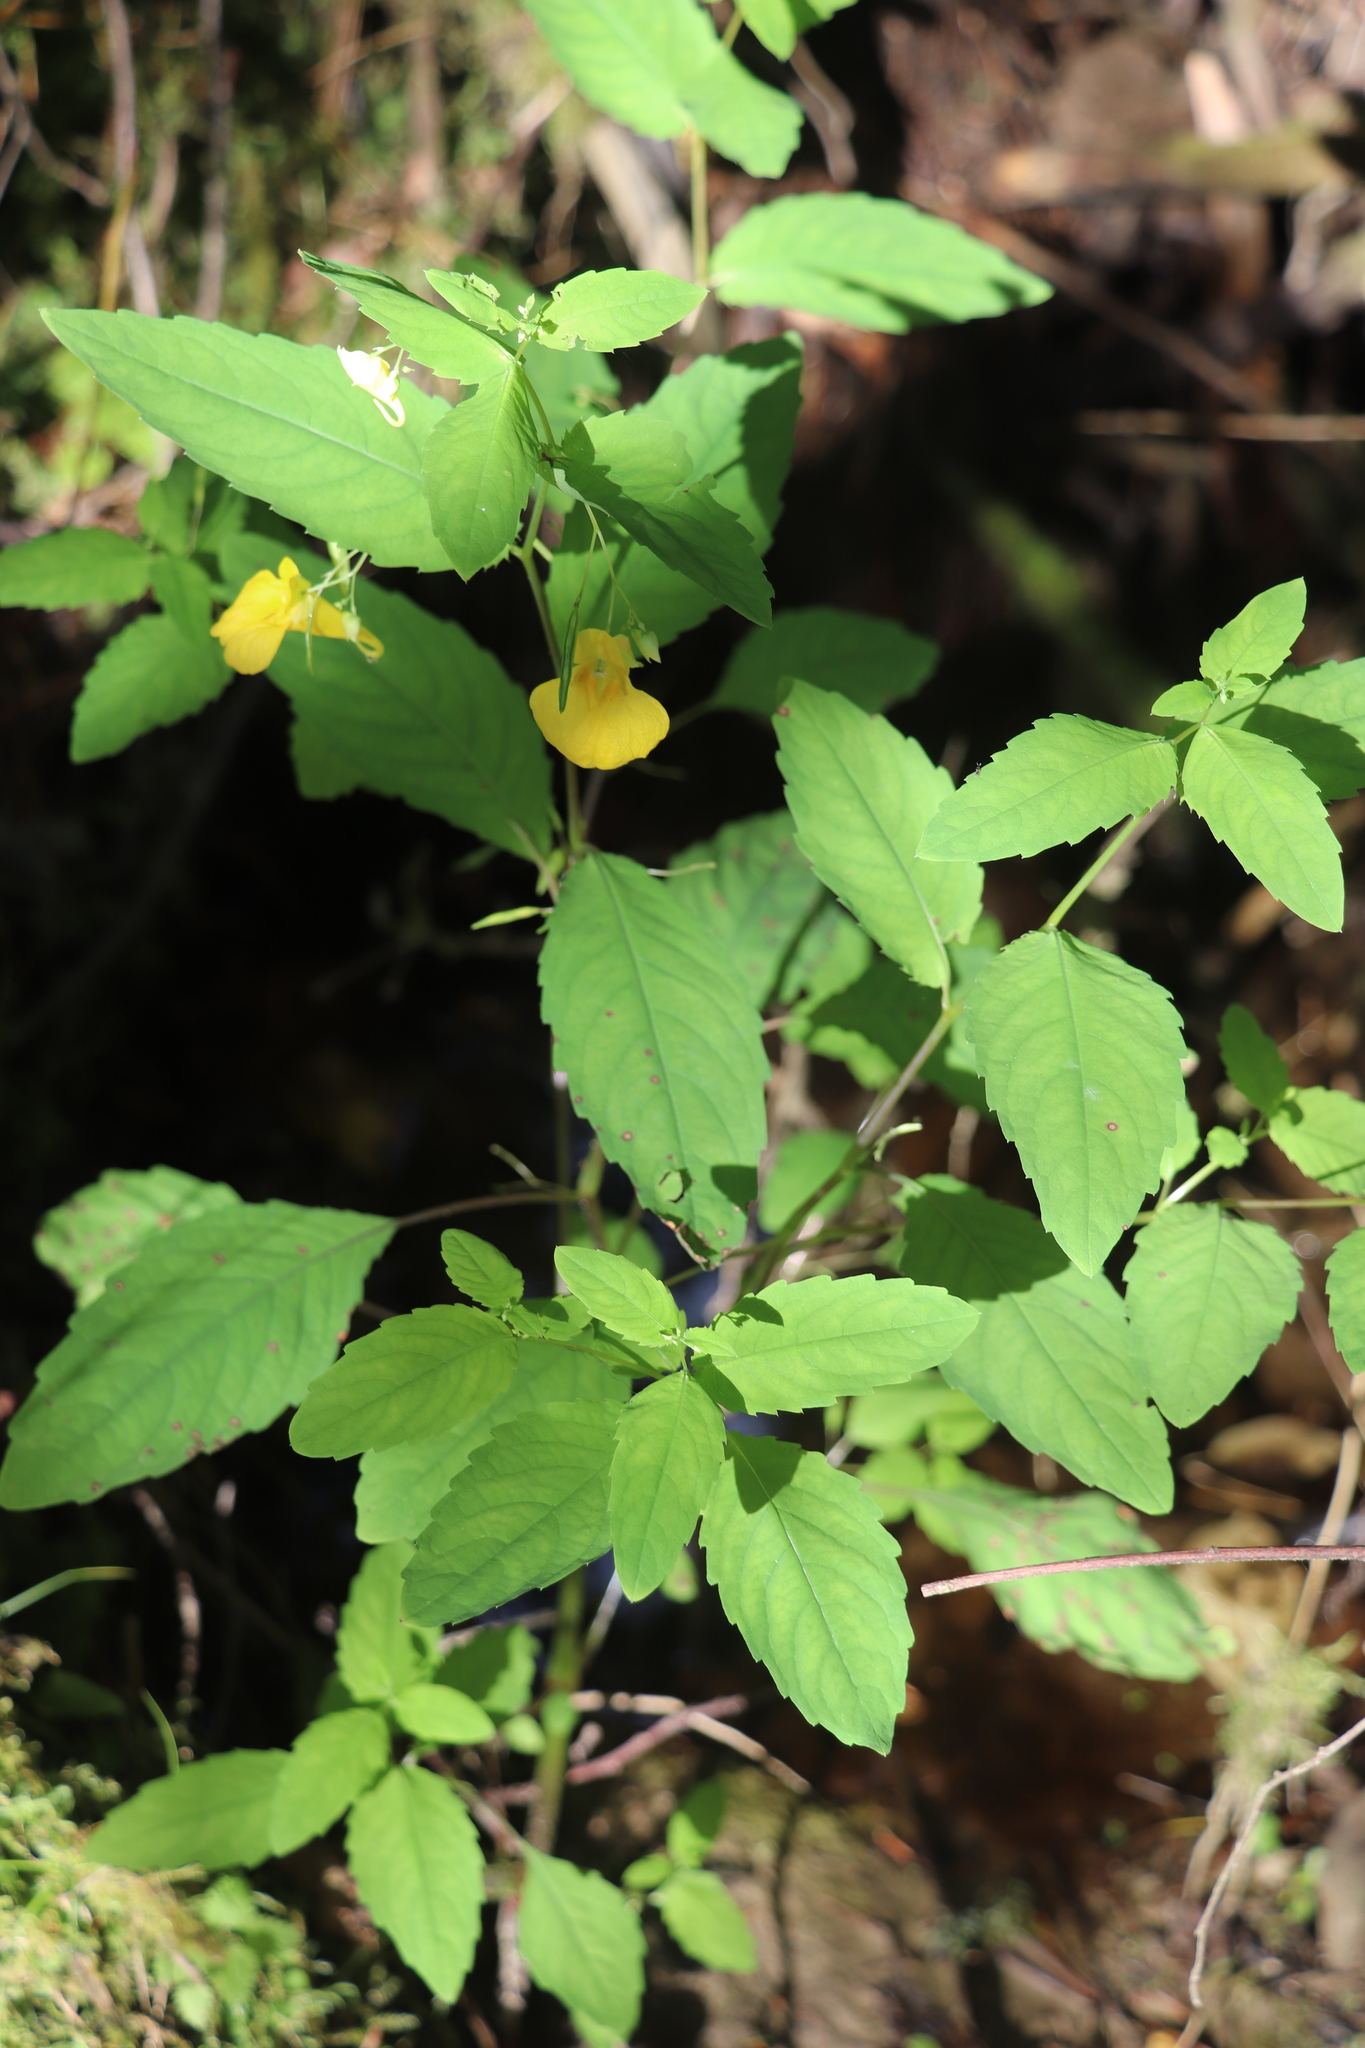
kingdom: Plantae
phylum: Tracheophyta
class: Magnoliopsida
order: Ericales
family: Balsaminaceae
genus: Impatiens
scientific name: Impatiens noli-tangere
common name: Touch-me-not balsam
